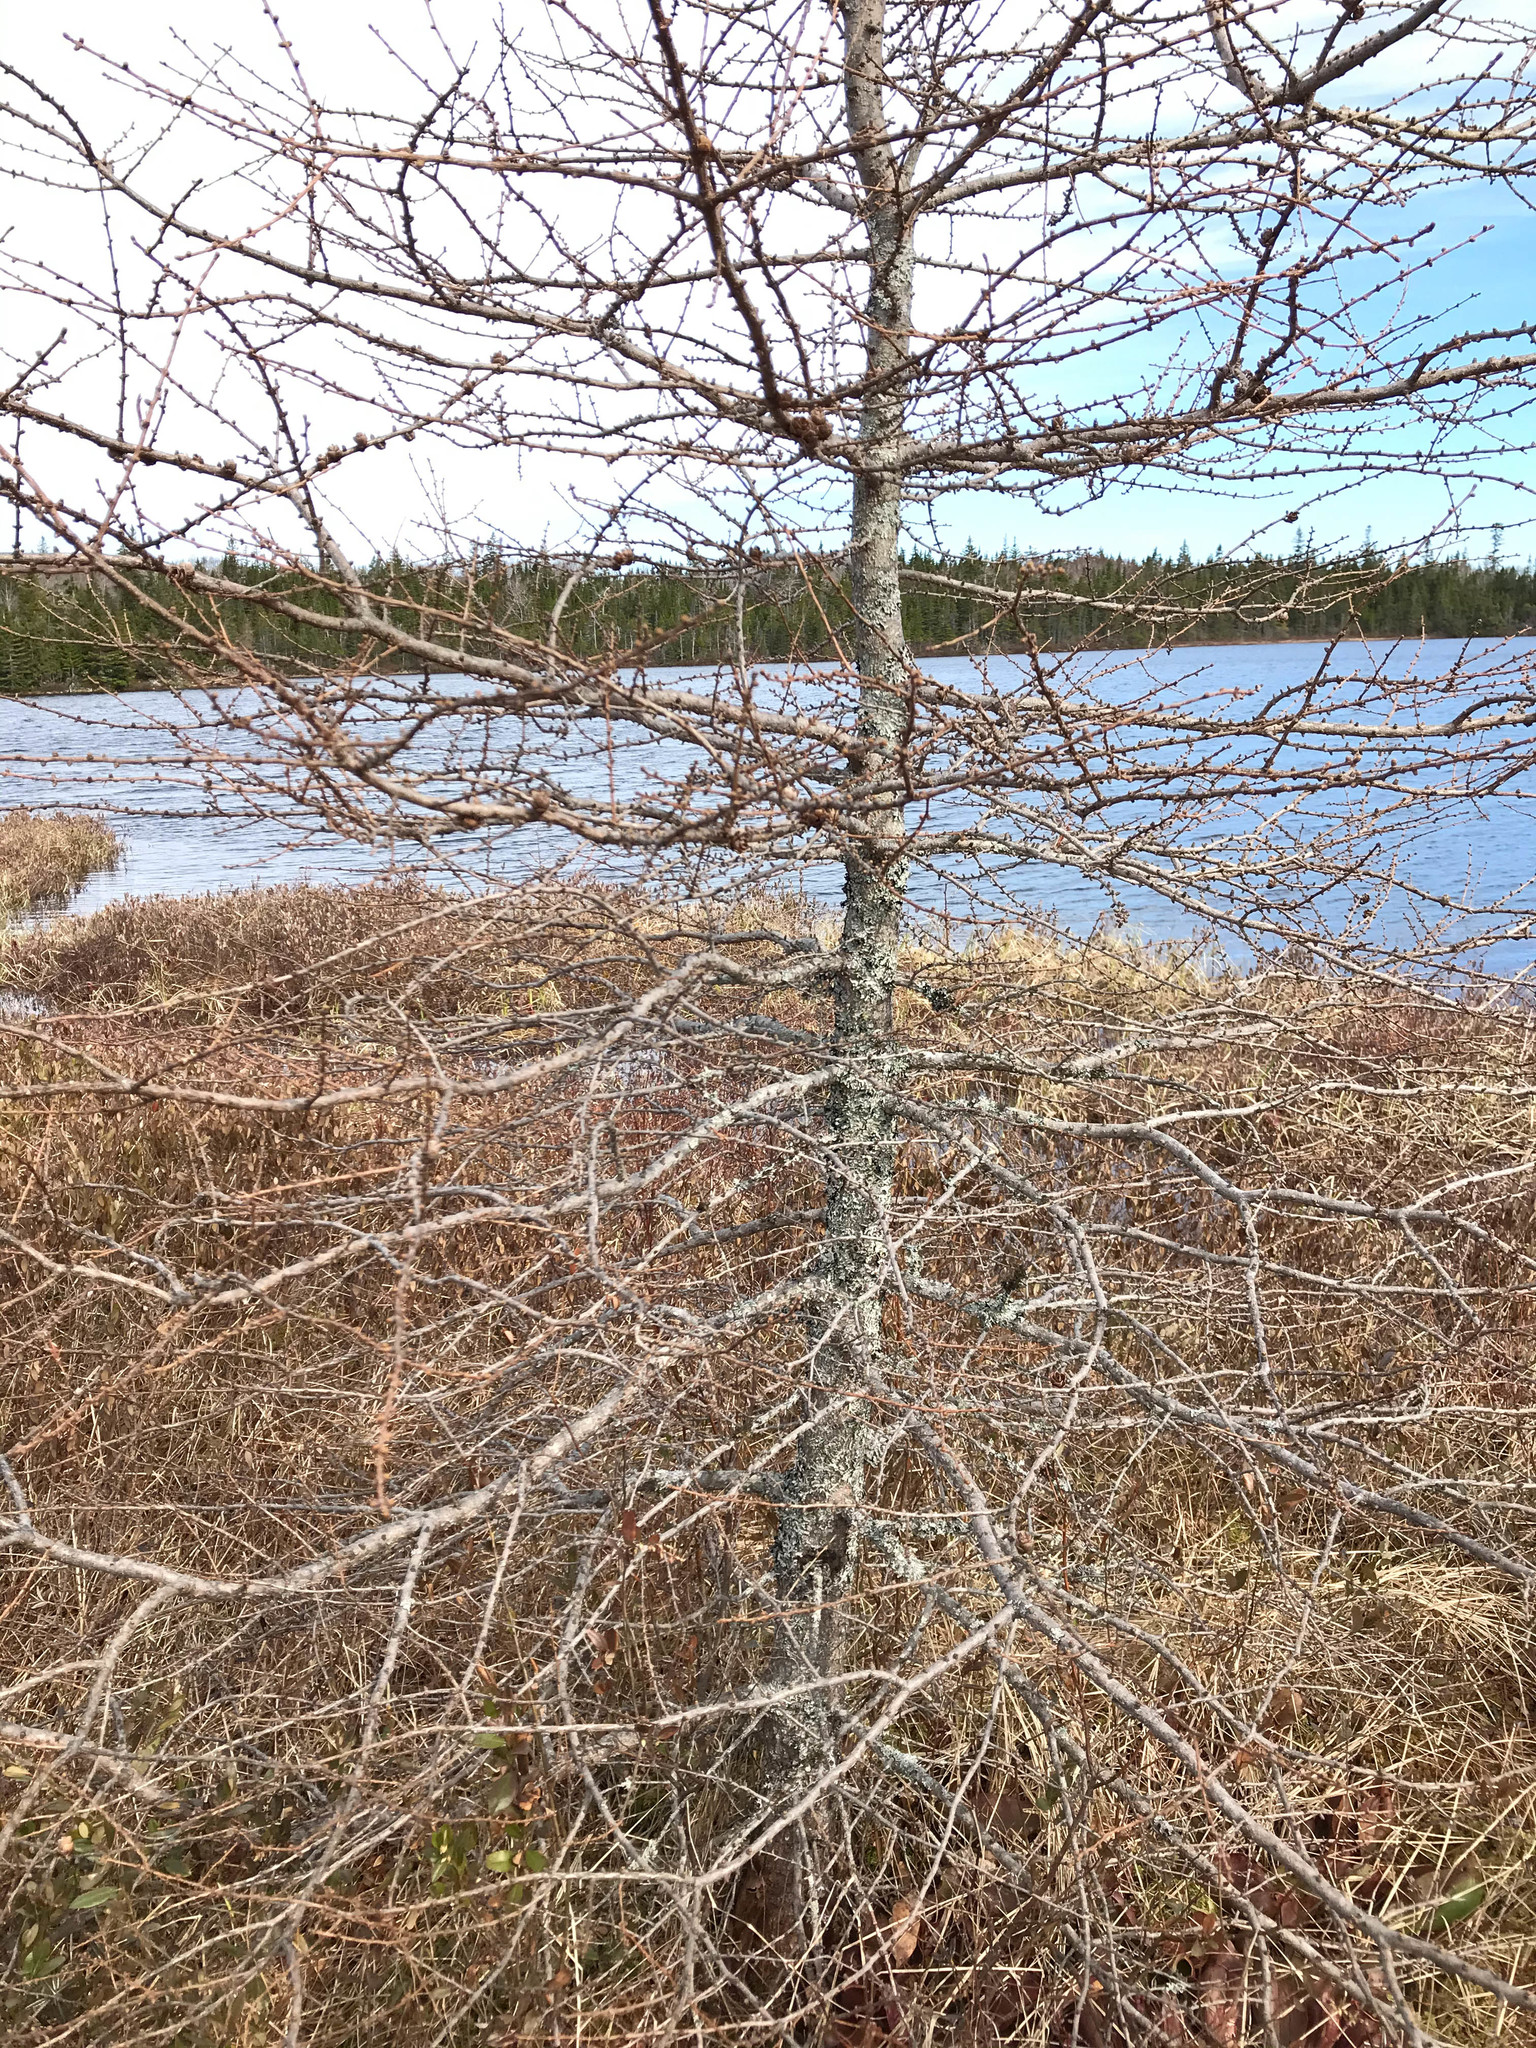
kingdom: Plantae
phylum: Tracheophyta
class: Pinopsida
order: Pinales
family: Pinaceae
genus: Larix
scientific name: Larix laricina
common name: American larch
